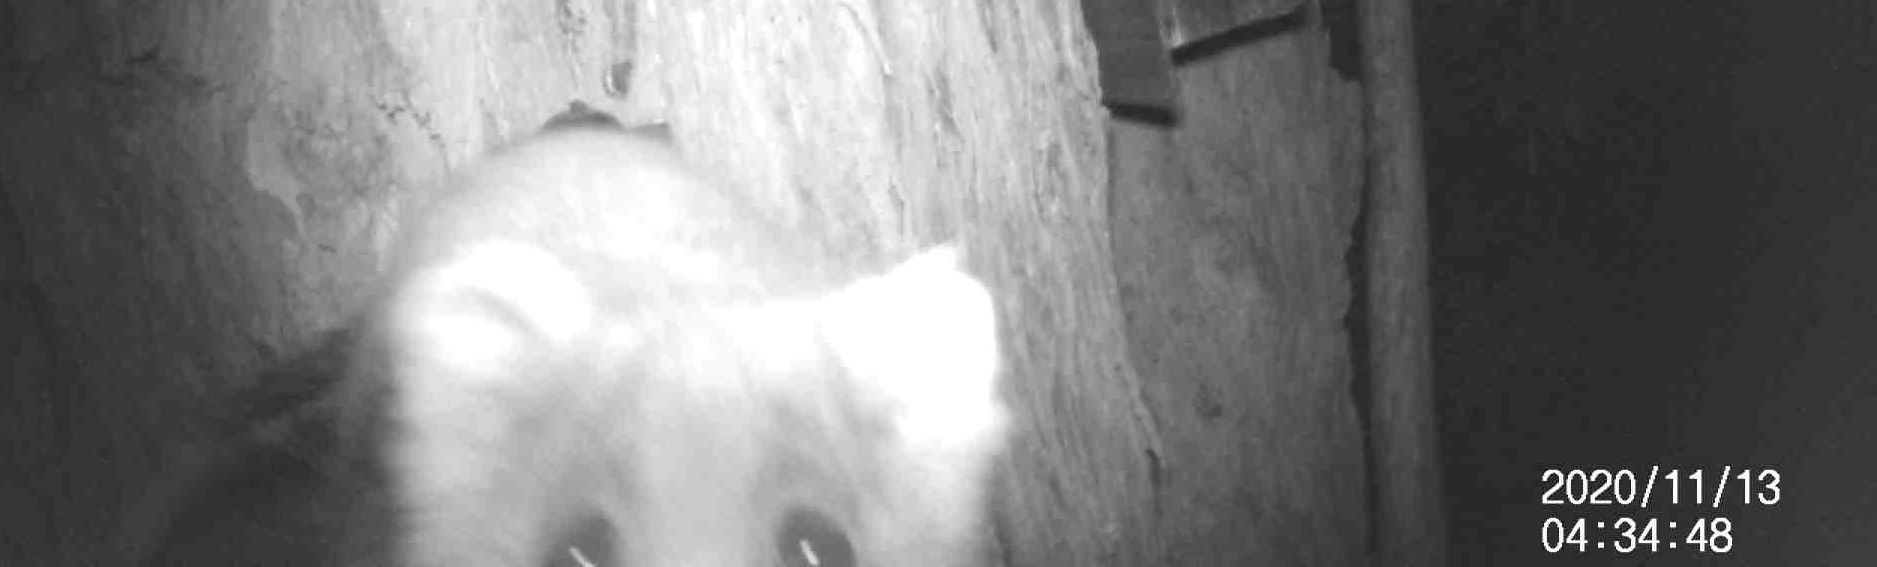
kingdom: Animalia
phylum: Chordata
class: Mammalia
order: Diprotodontia
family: Pseudocheiridae
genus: Pseudocheirus
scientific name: Pseudocheirus peregrinus
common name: Common ringtail possum
